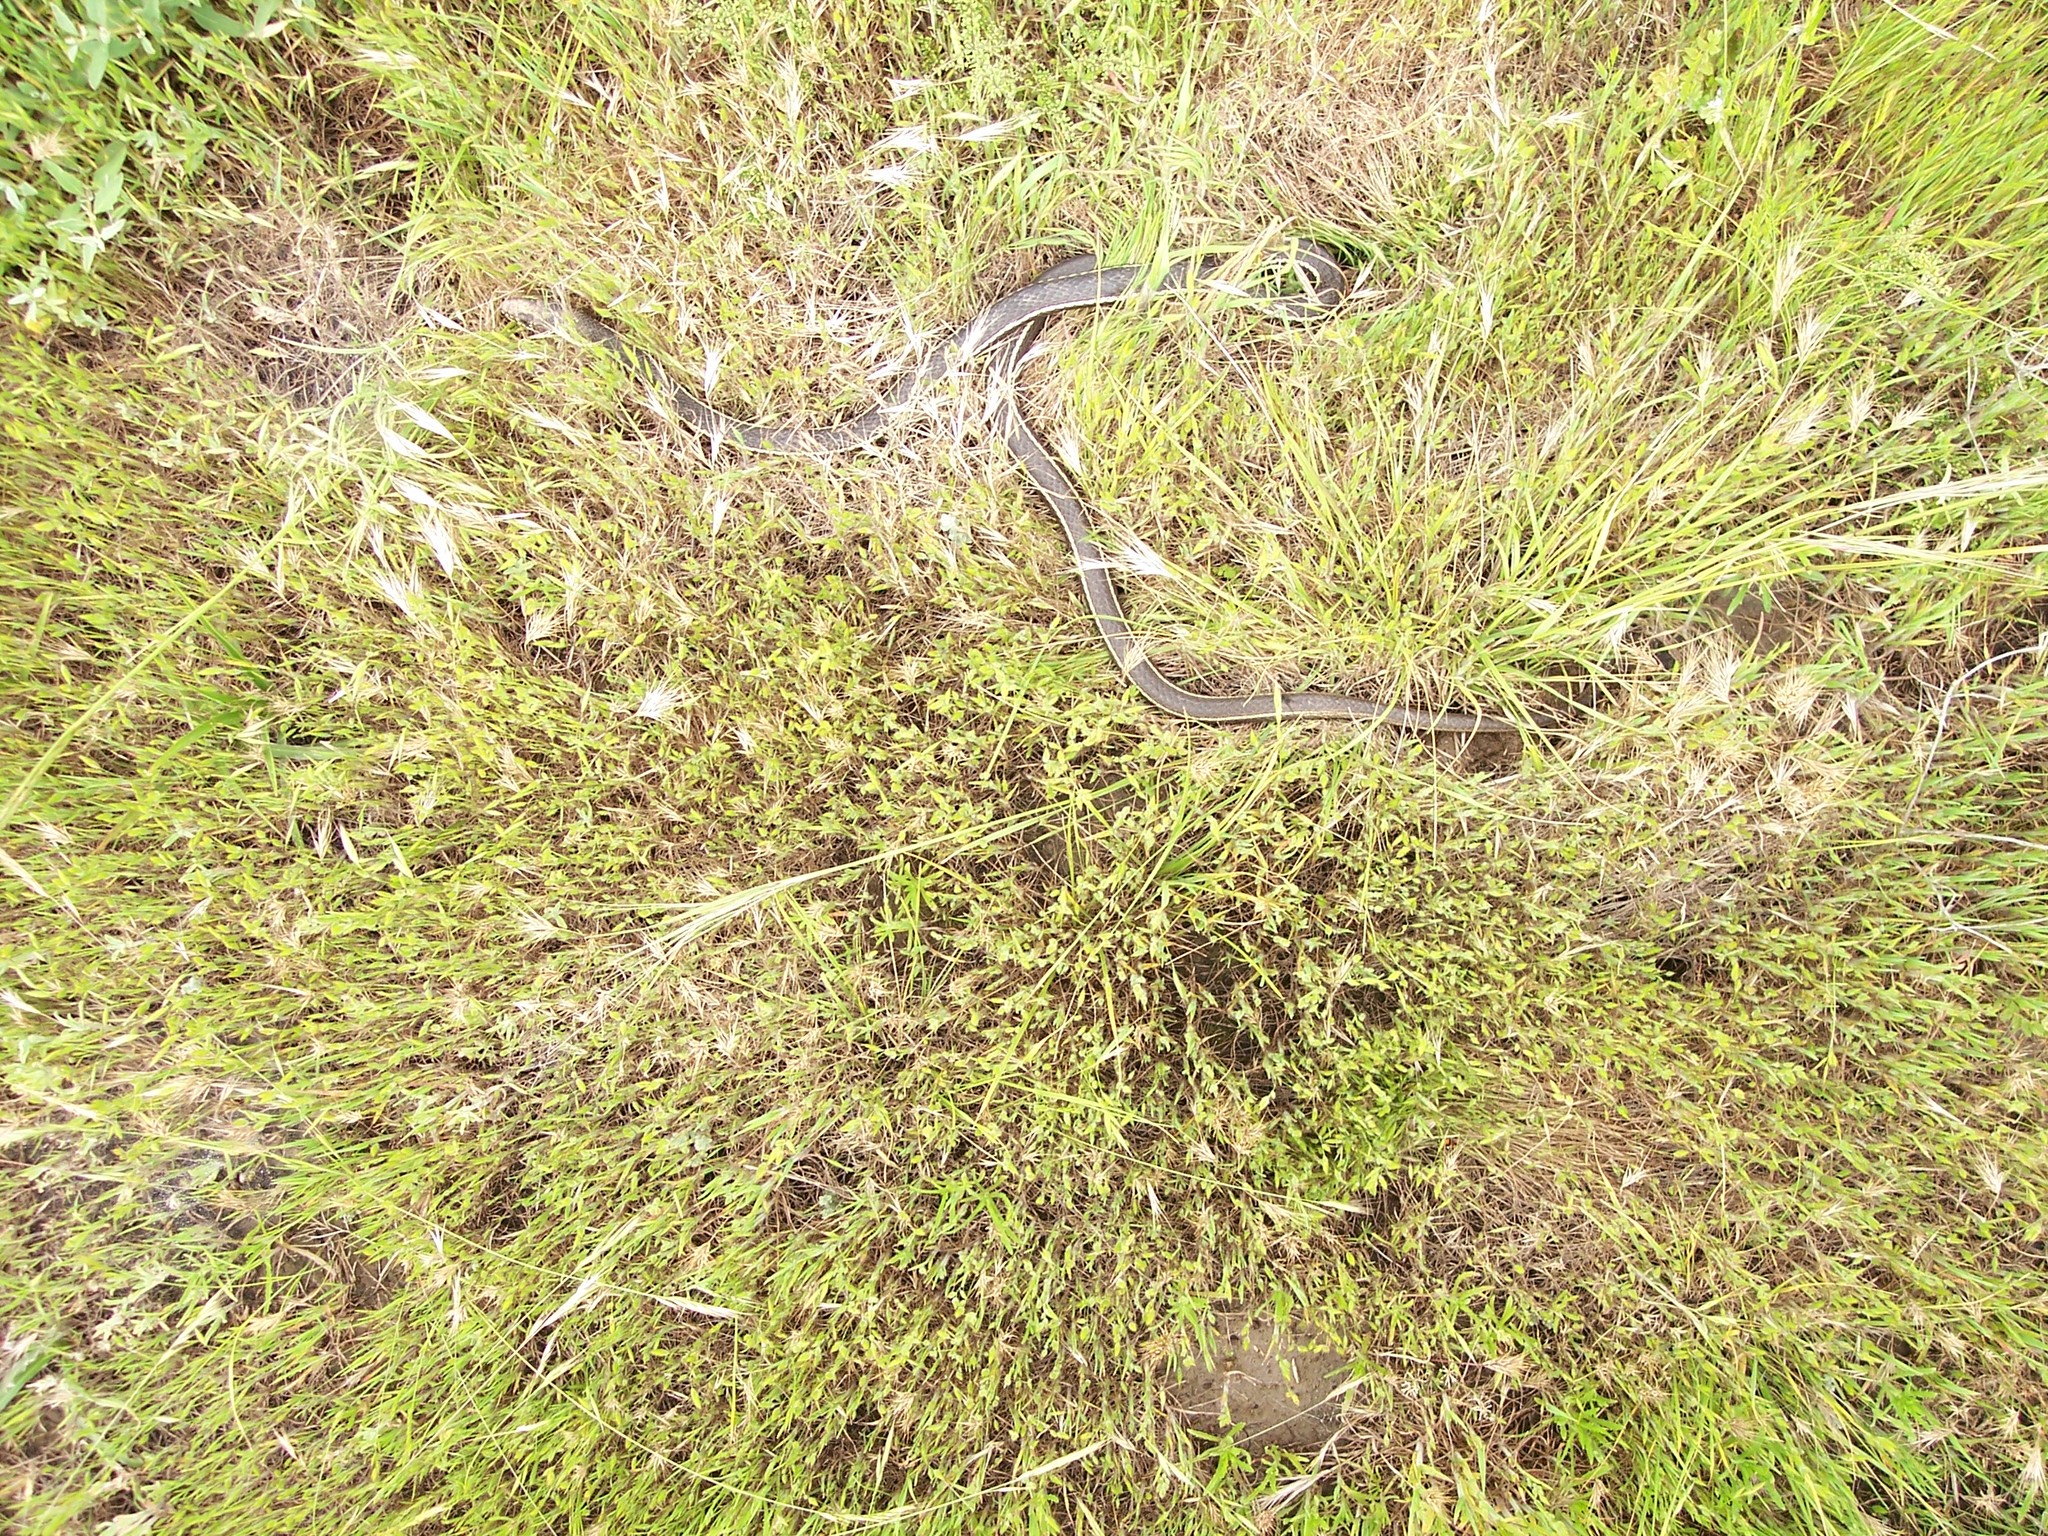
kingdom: Animalia
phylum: Chordata
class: Squamata
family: Colubridae
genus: Masticophis
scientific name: Masticophis lateralis
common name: Striped racer
